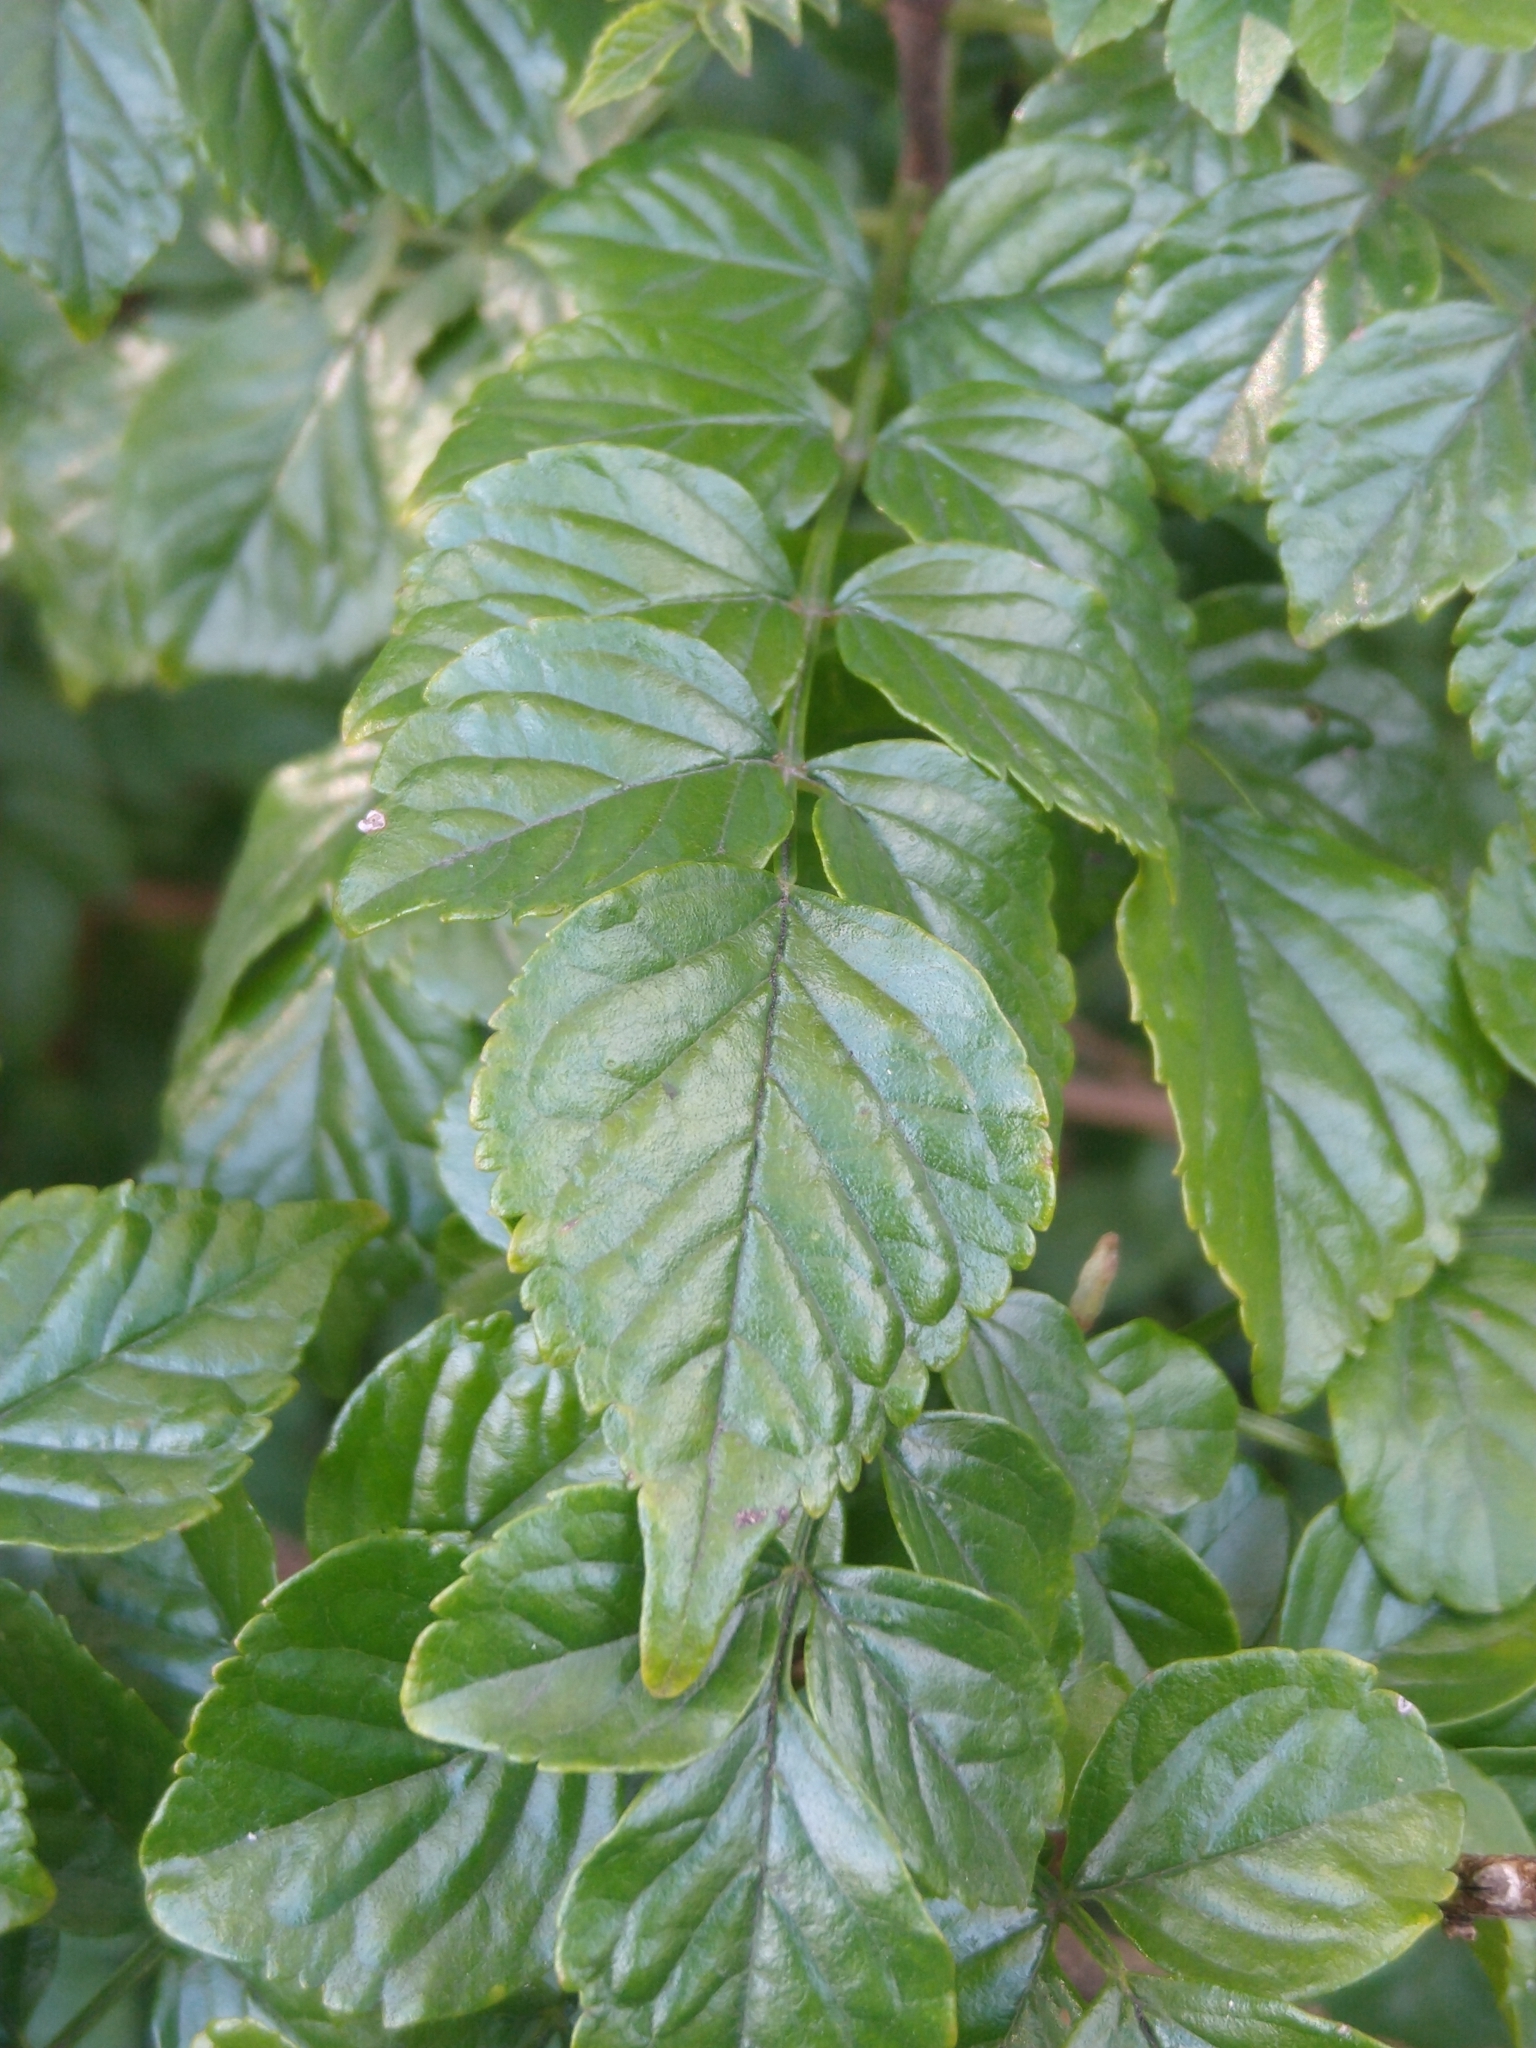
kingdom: Plantae
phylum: Tracheophyta
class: Magnoliopsida
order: Lamiales
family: Bignoniaceae
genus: Tecomaria
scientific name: Tecomaria capensis
